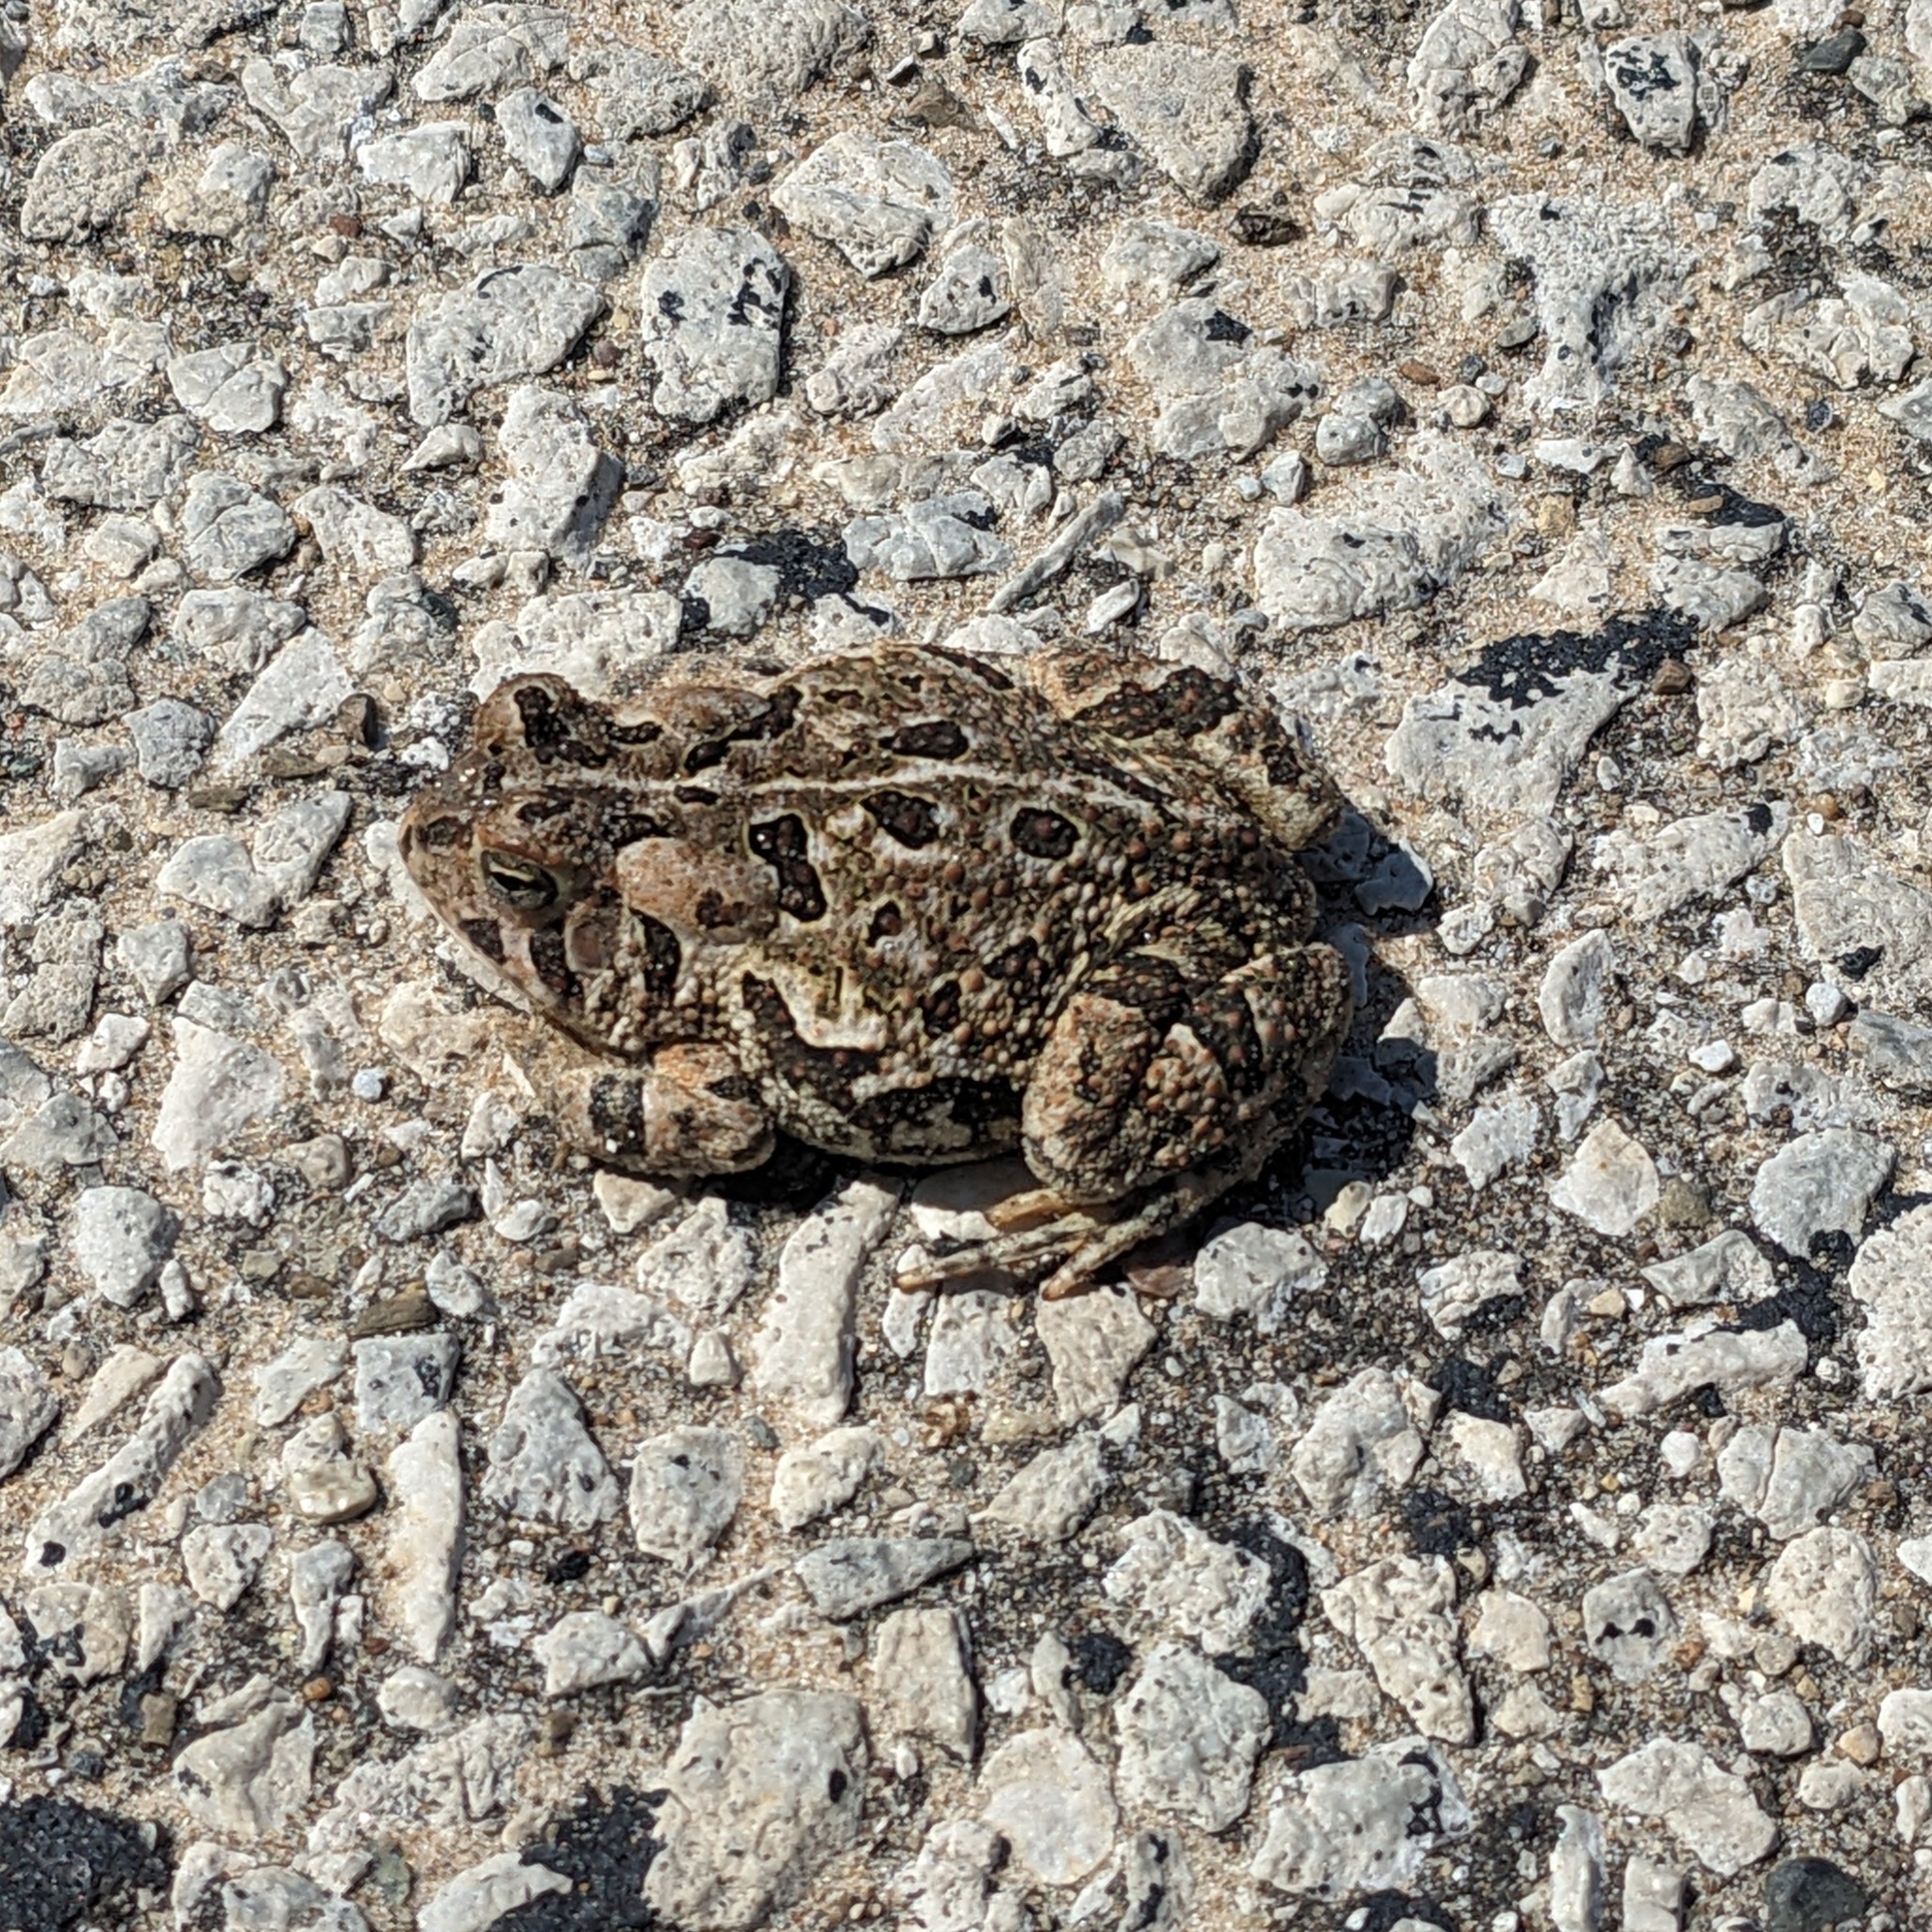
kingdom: Animalia
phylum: Chordata
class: Amphibia
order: Anura
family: Bufonidae
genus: Anaxyrus
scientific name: Anaxyrus fowleri
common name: Fowler's toad
